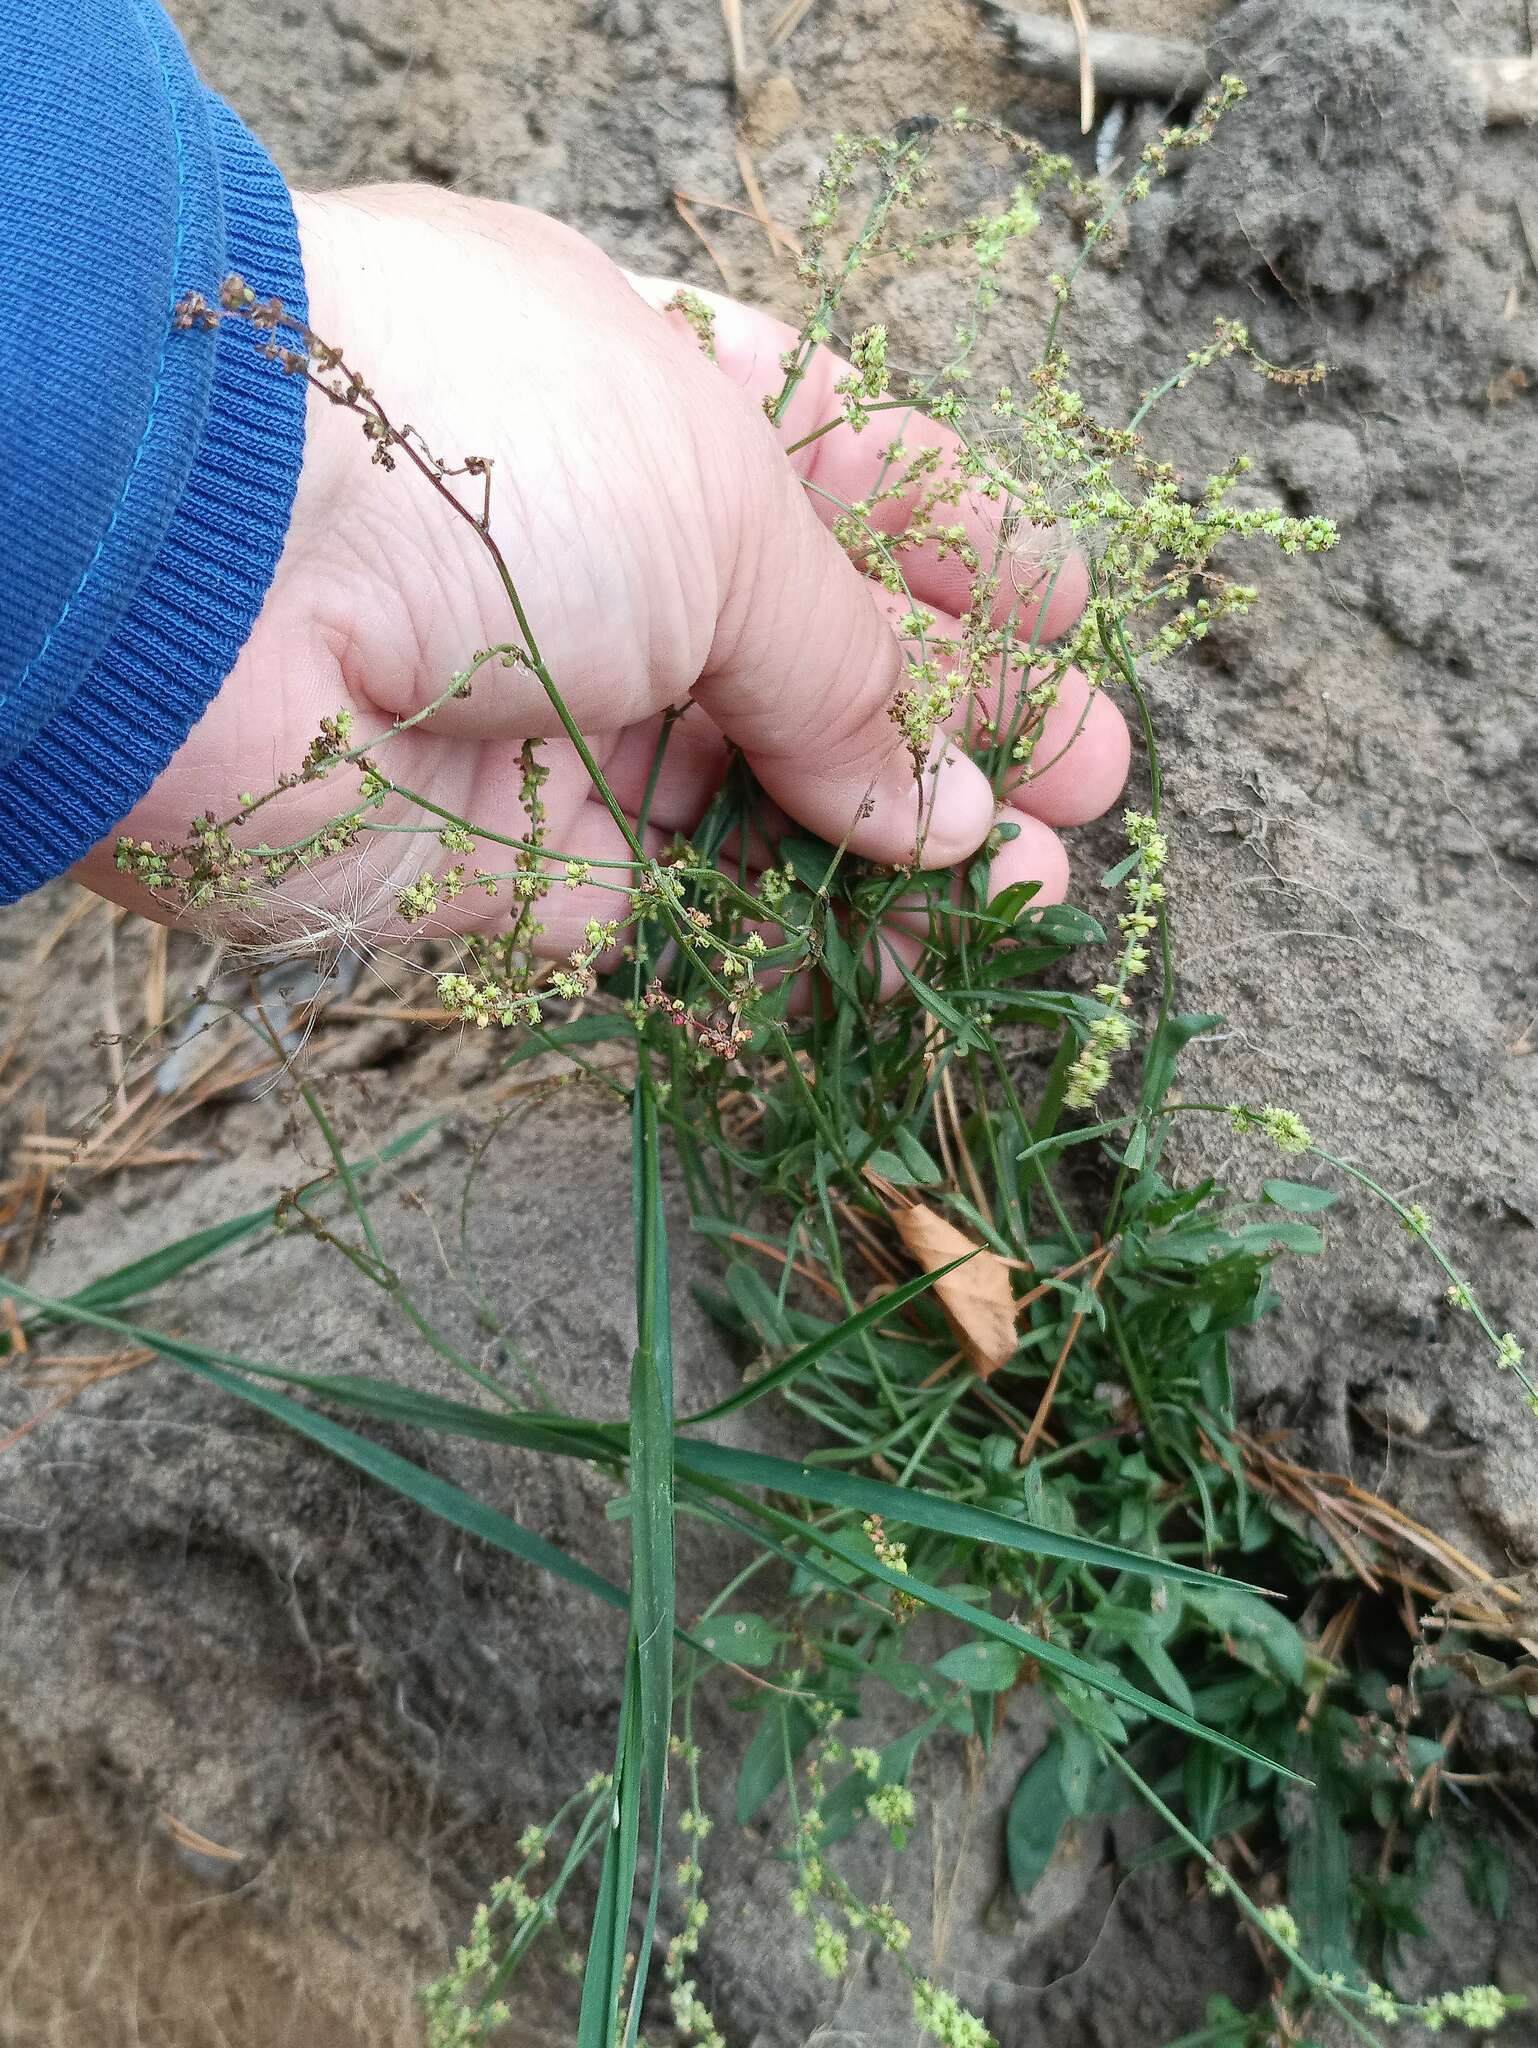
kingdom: Plantae
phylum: Tracheophyta
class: Magnoliopsida
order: Caryophyllales
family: Polygonaceae
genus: Rumex
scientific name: Rumex acetosella
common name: Common sheep sorrel
